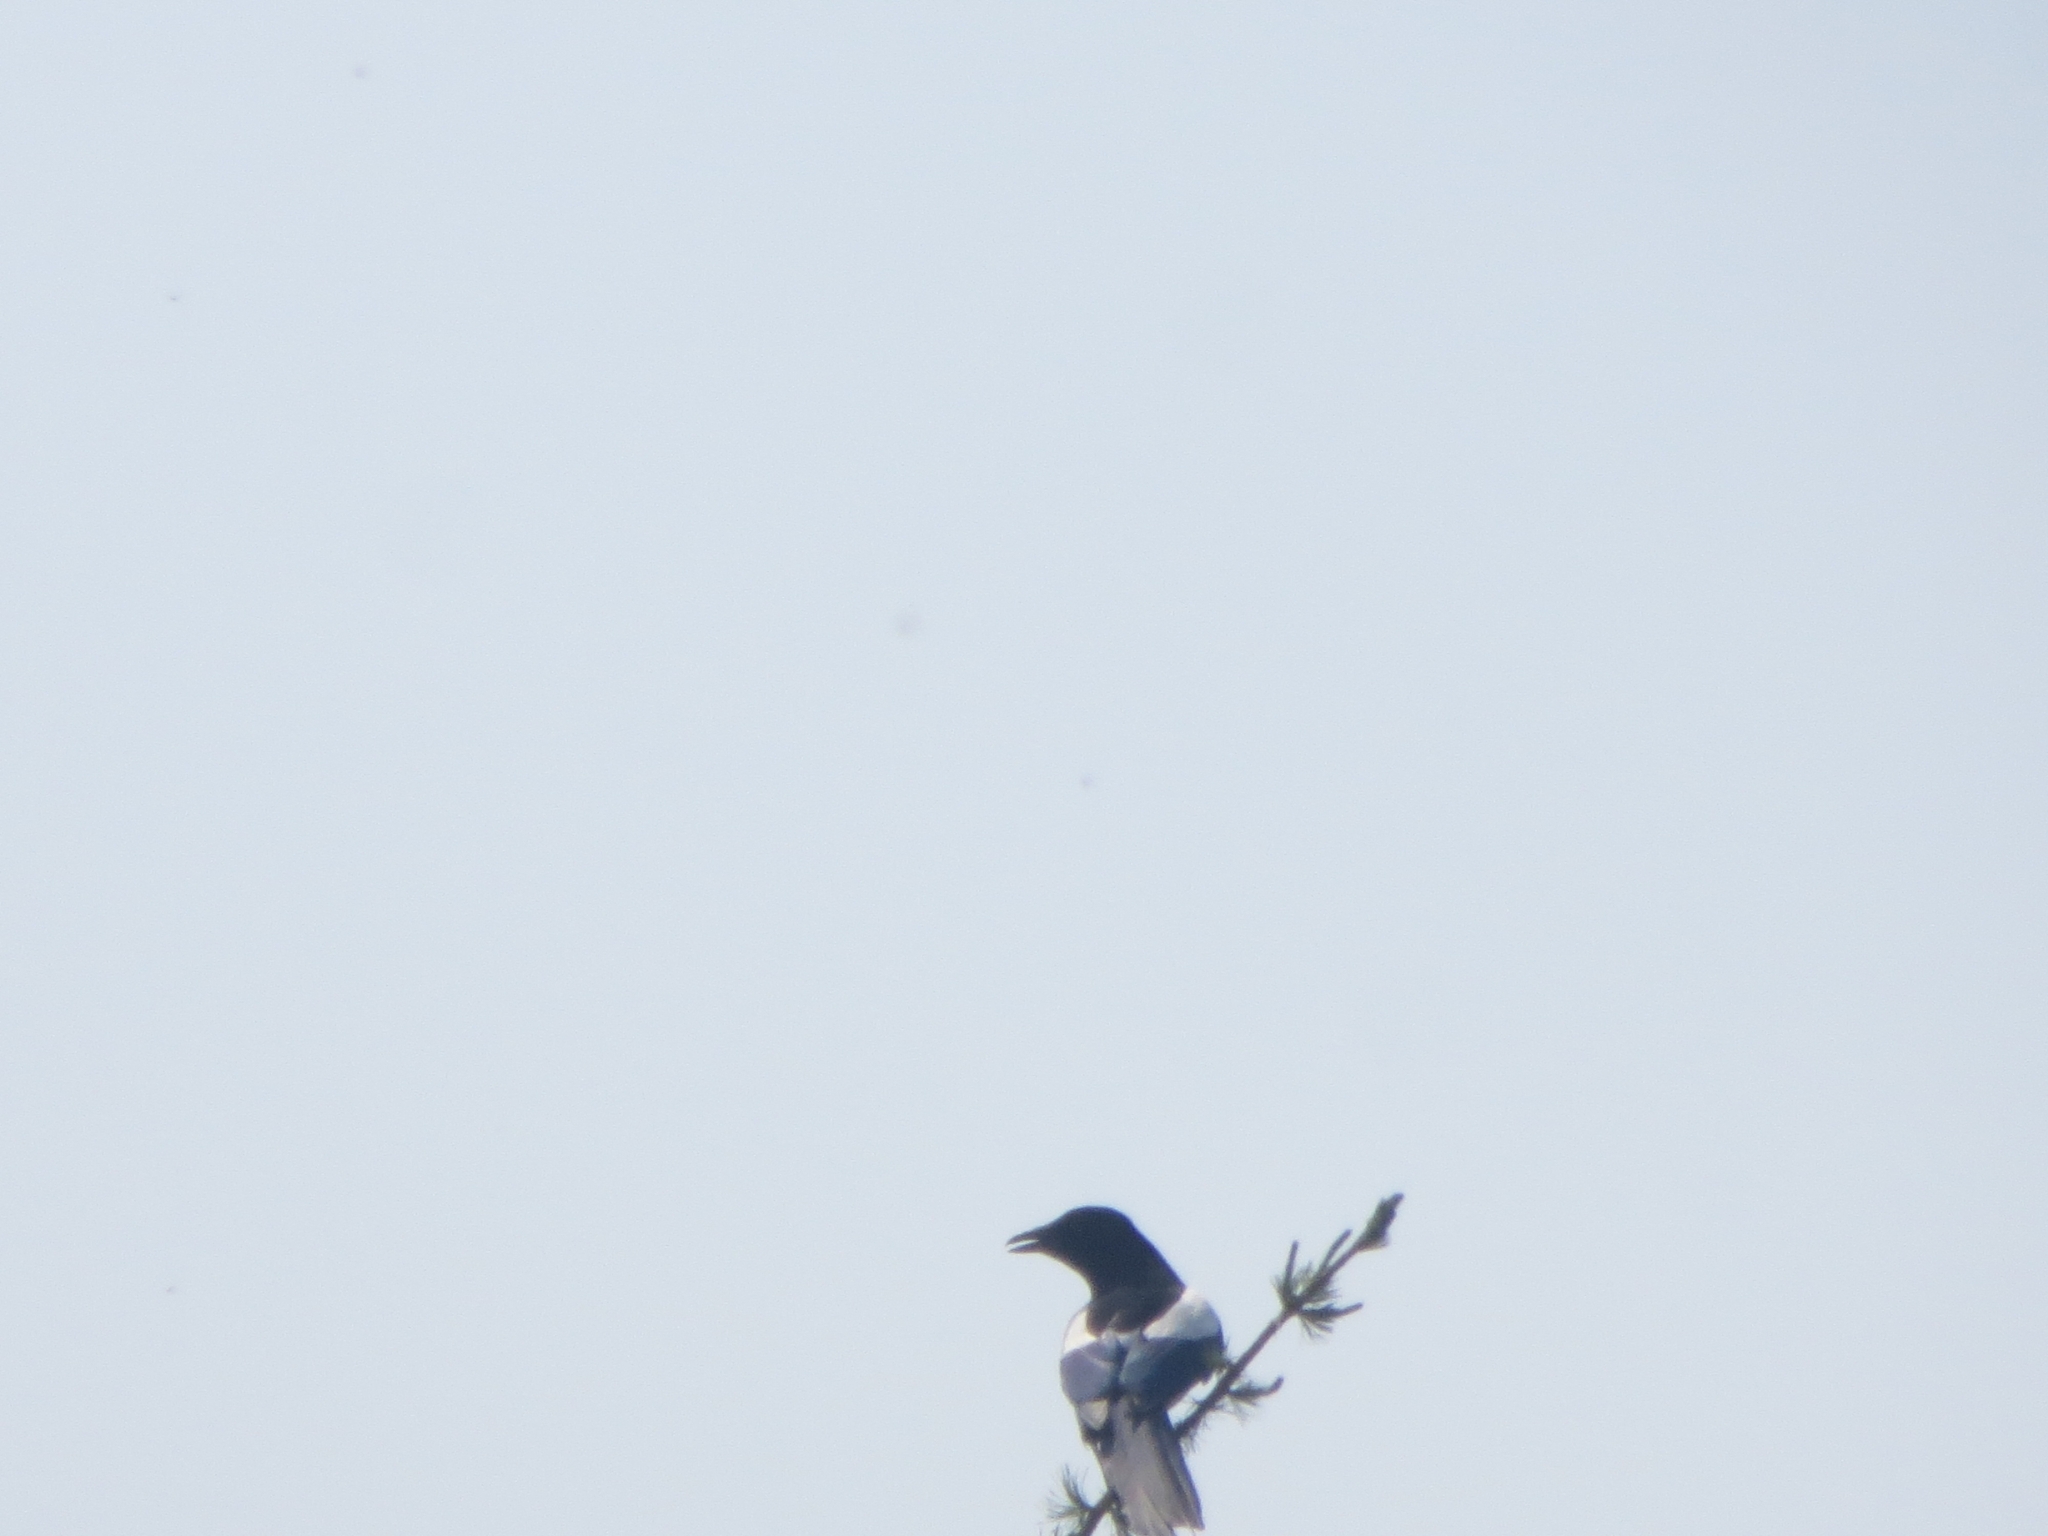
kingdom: Animalia
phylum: Chordata
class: Aves
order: Passeriformes
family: Corvidae
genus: Pica
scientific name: Pica pica
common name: Eurasian magpie
